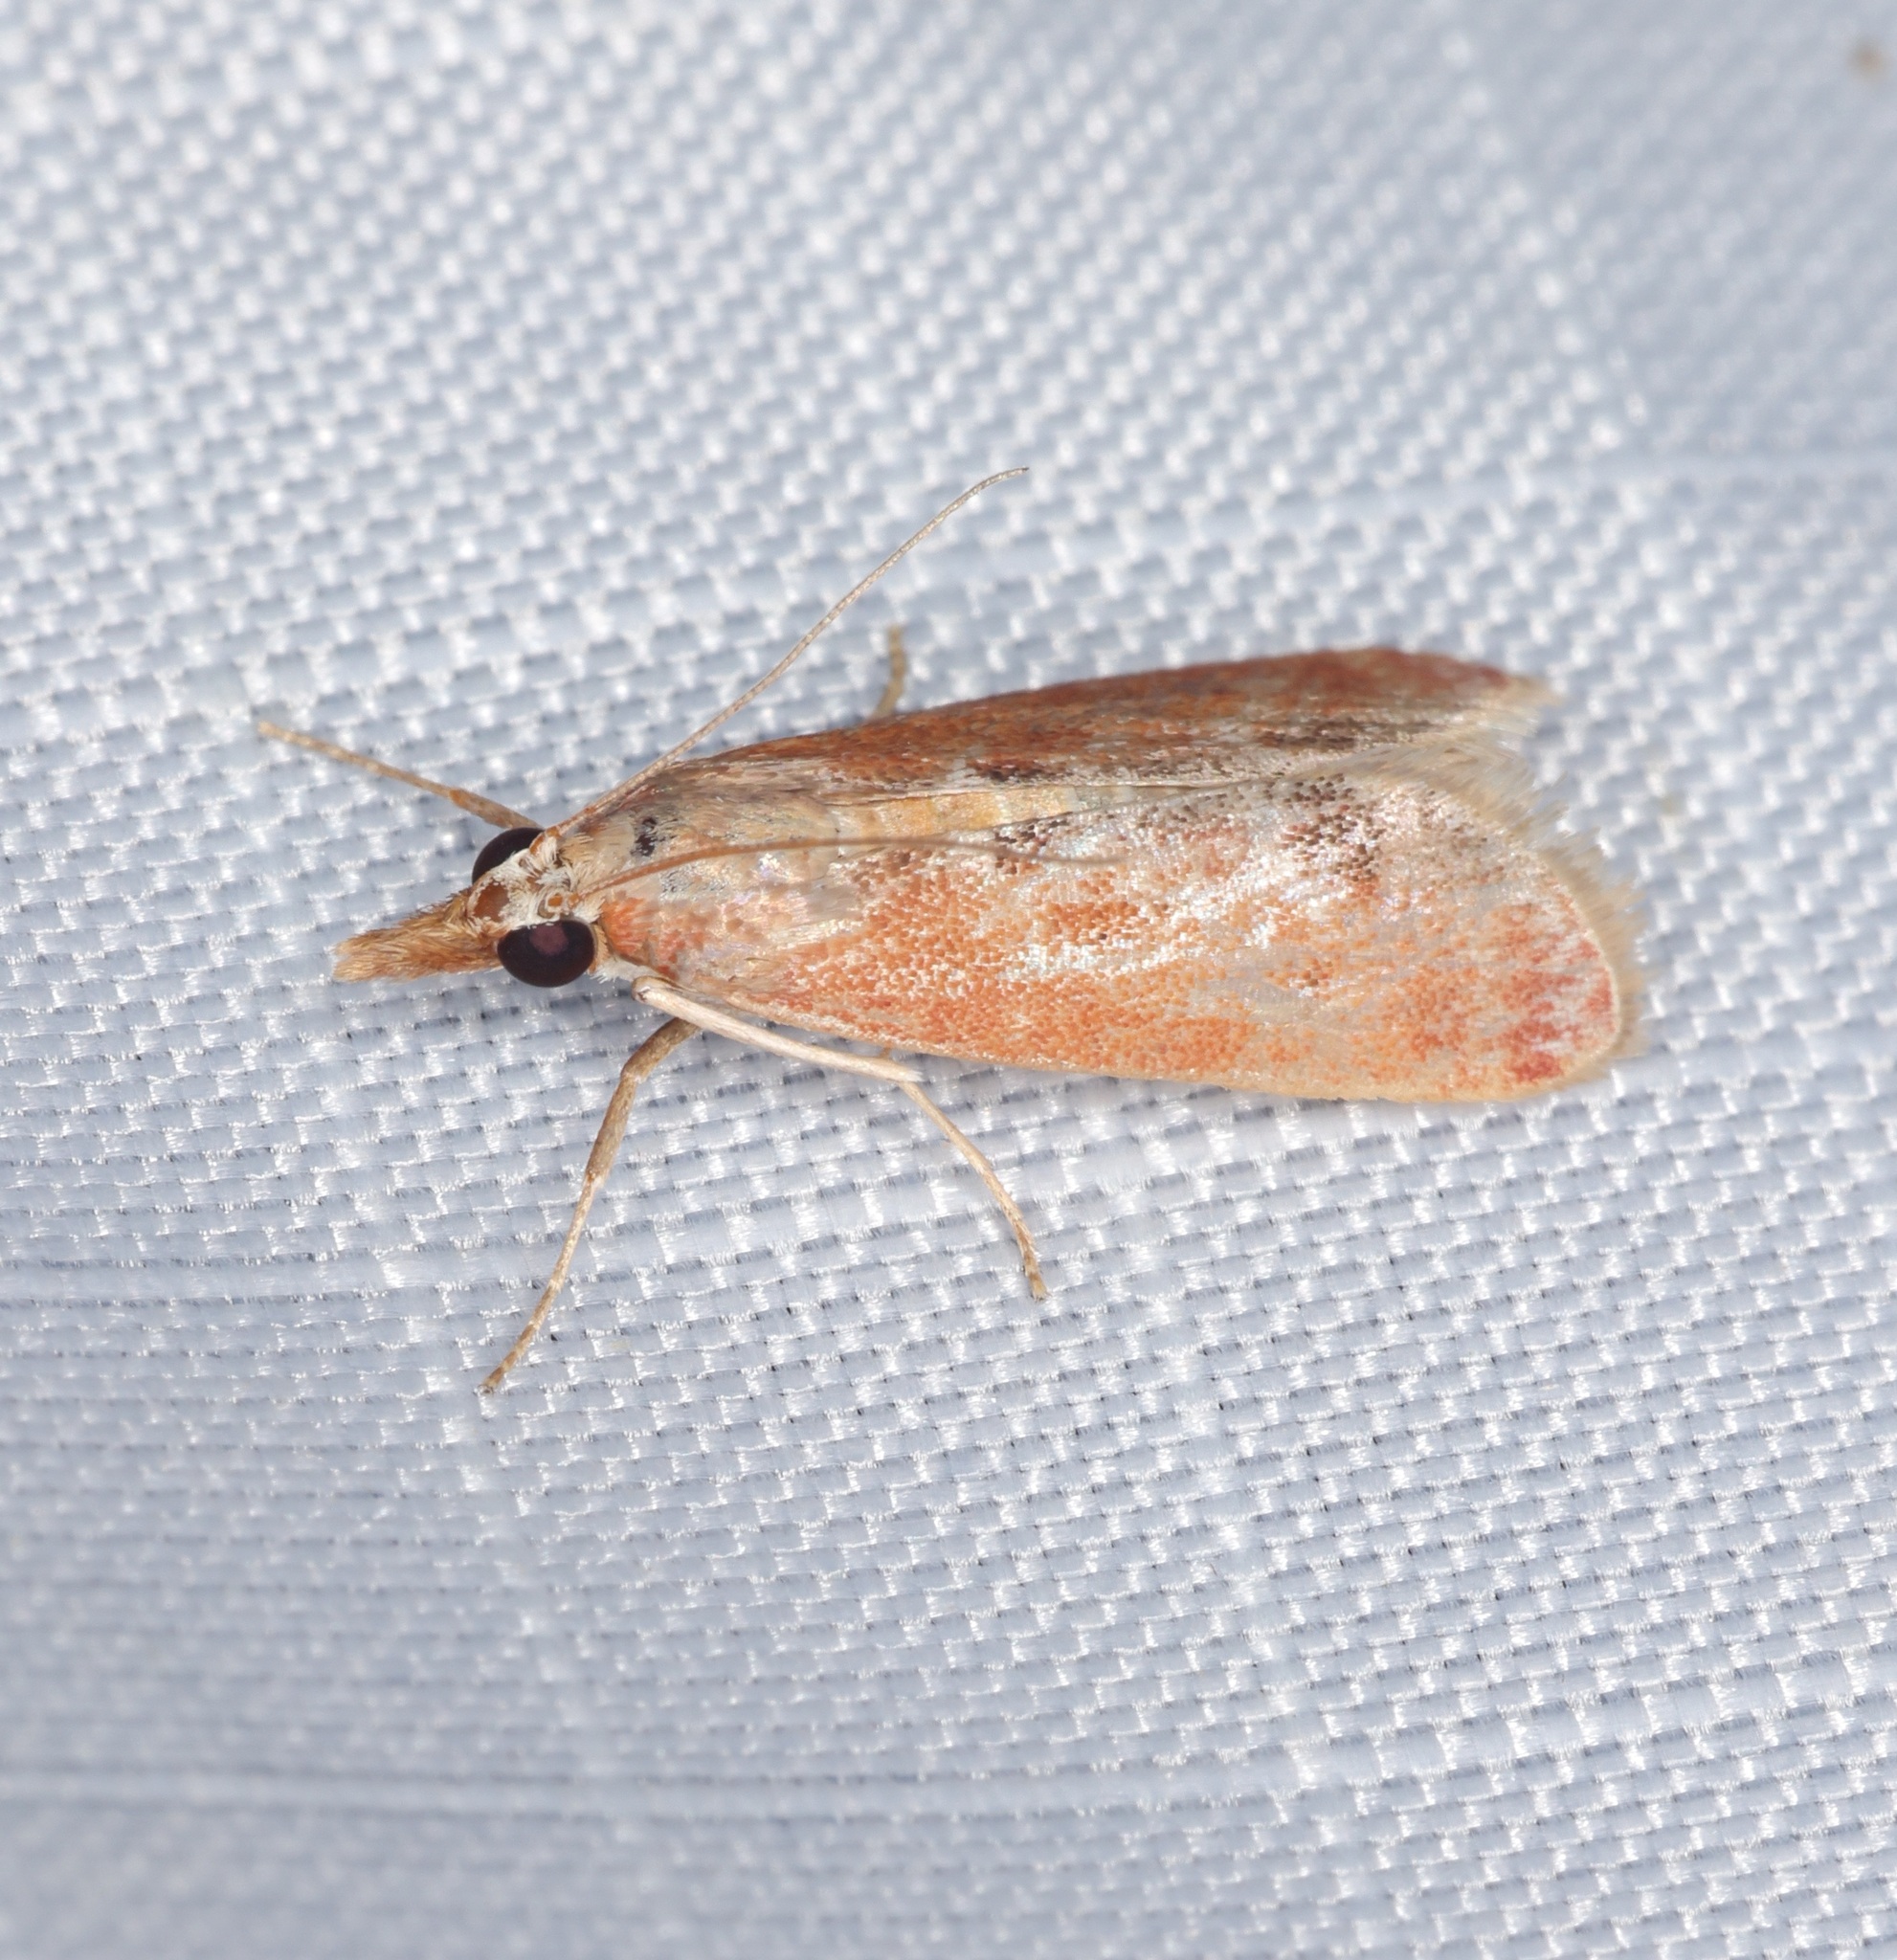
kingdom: Animalia
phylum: Arthropoda
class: Insecta
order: Lepidoptera
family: Crambidae
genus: Syntonarcha
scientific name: Syntonarcha iriastis
